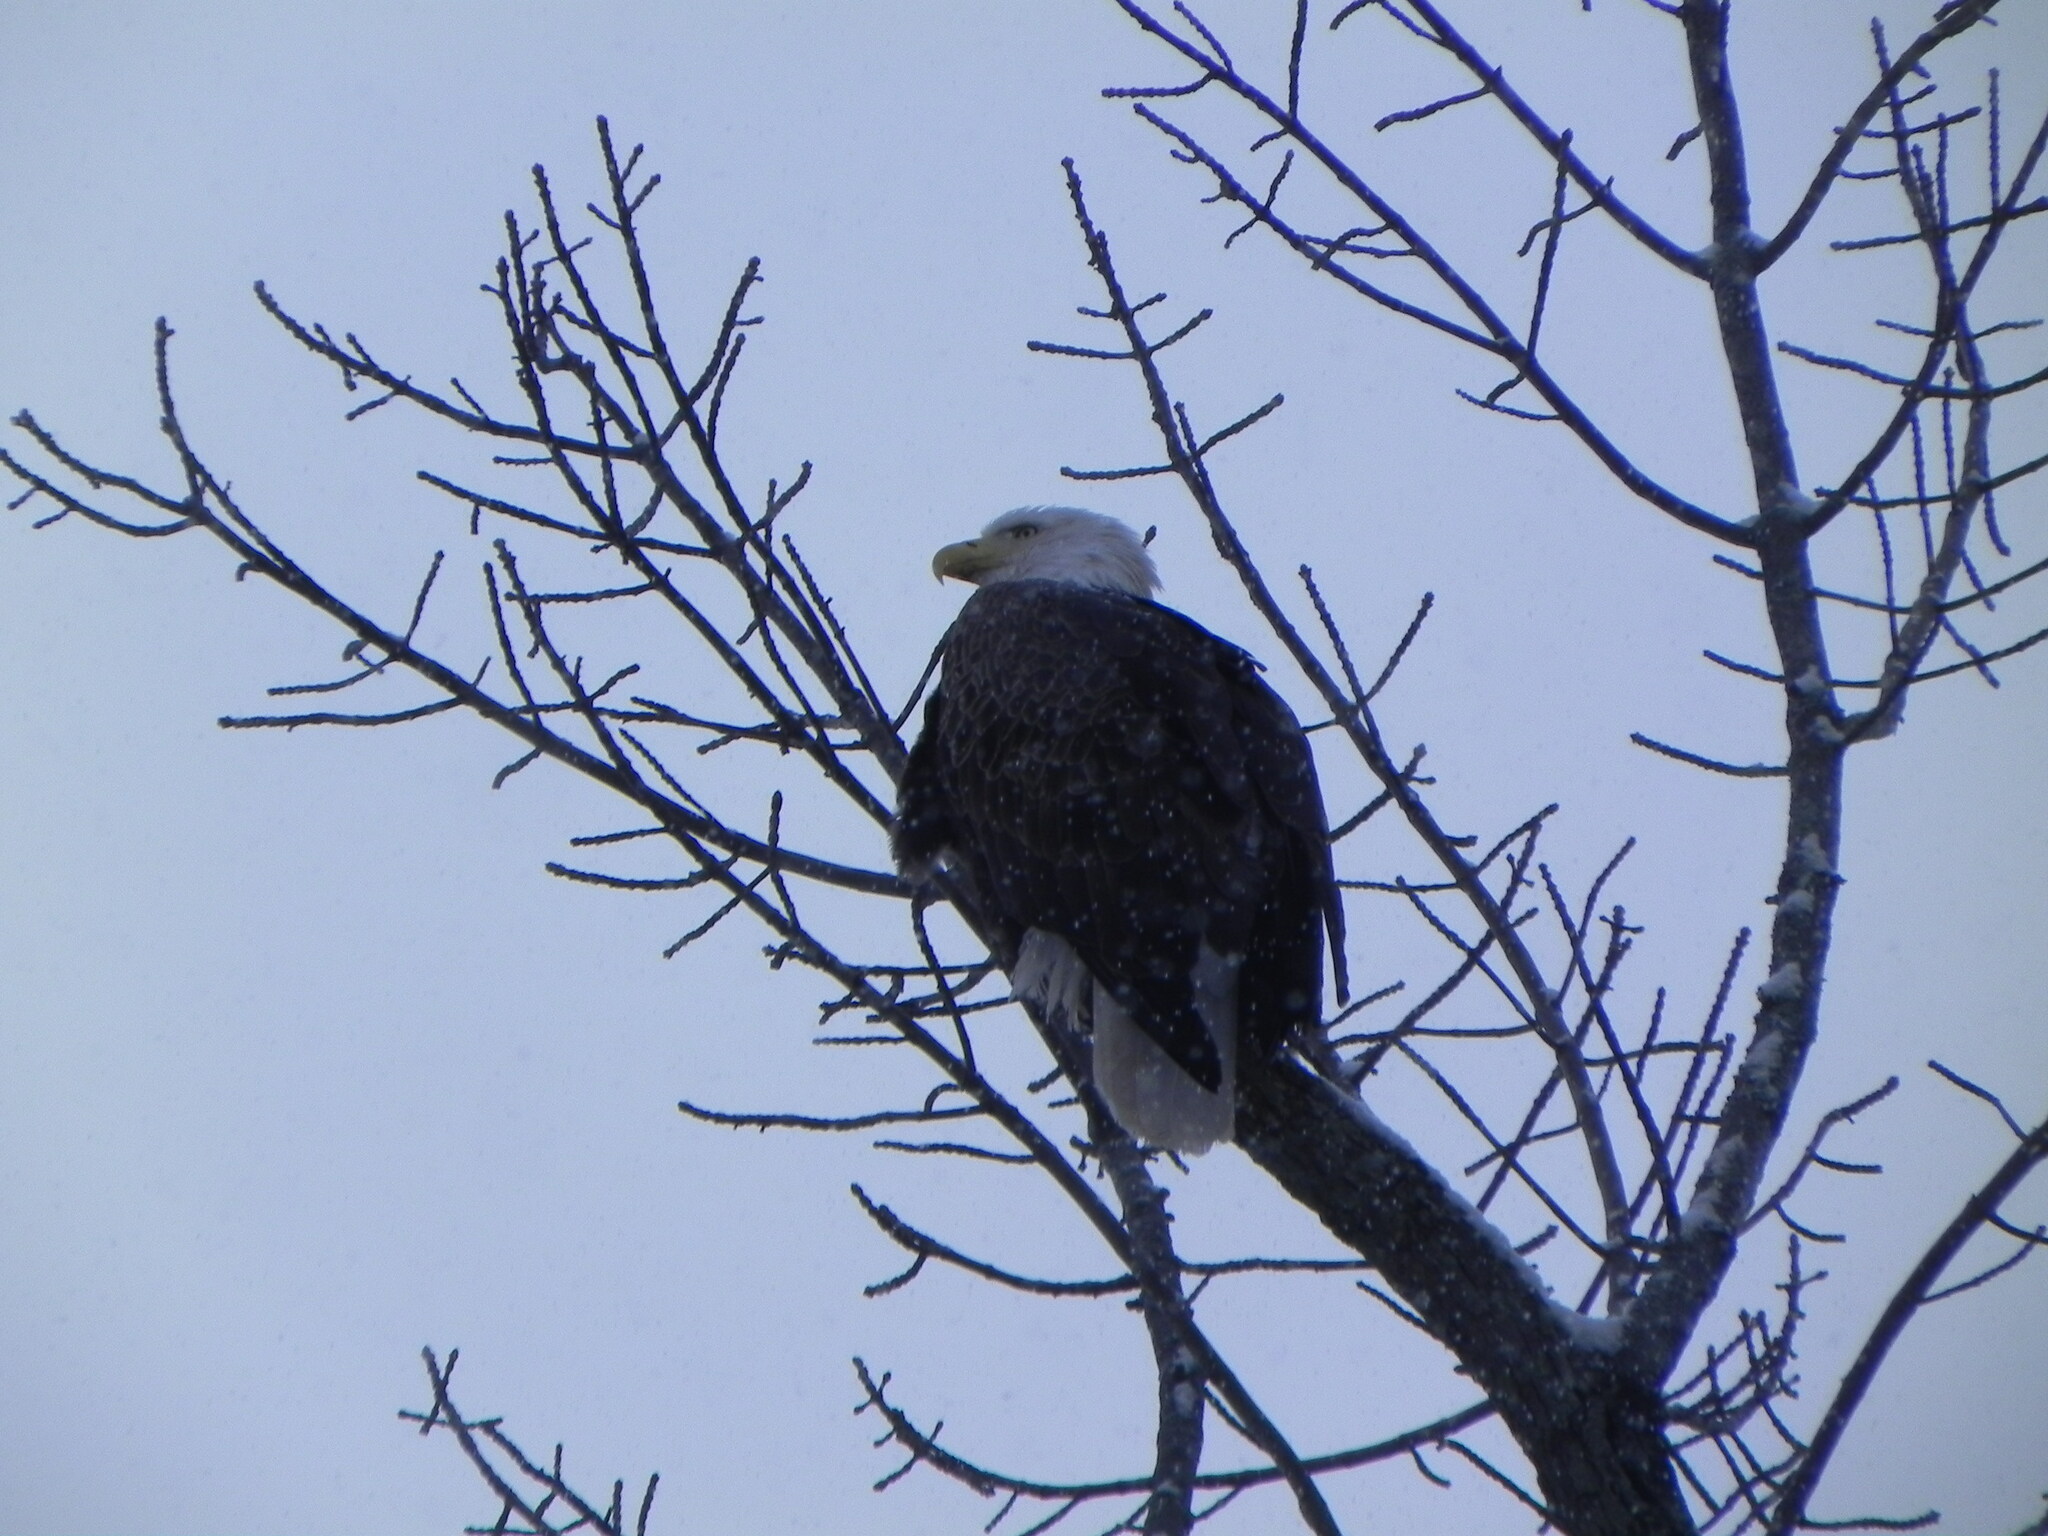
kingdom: Animalia
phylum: Chordata
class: Aves
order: Accipitriformes
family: Accipitridae
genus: Haliaeetus
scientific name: Haliaeetus leucocephalus
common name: Bald eagle
